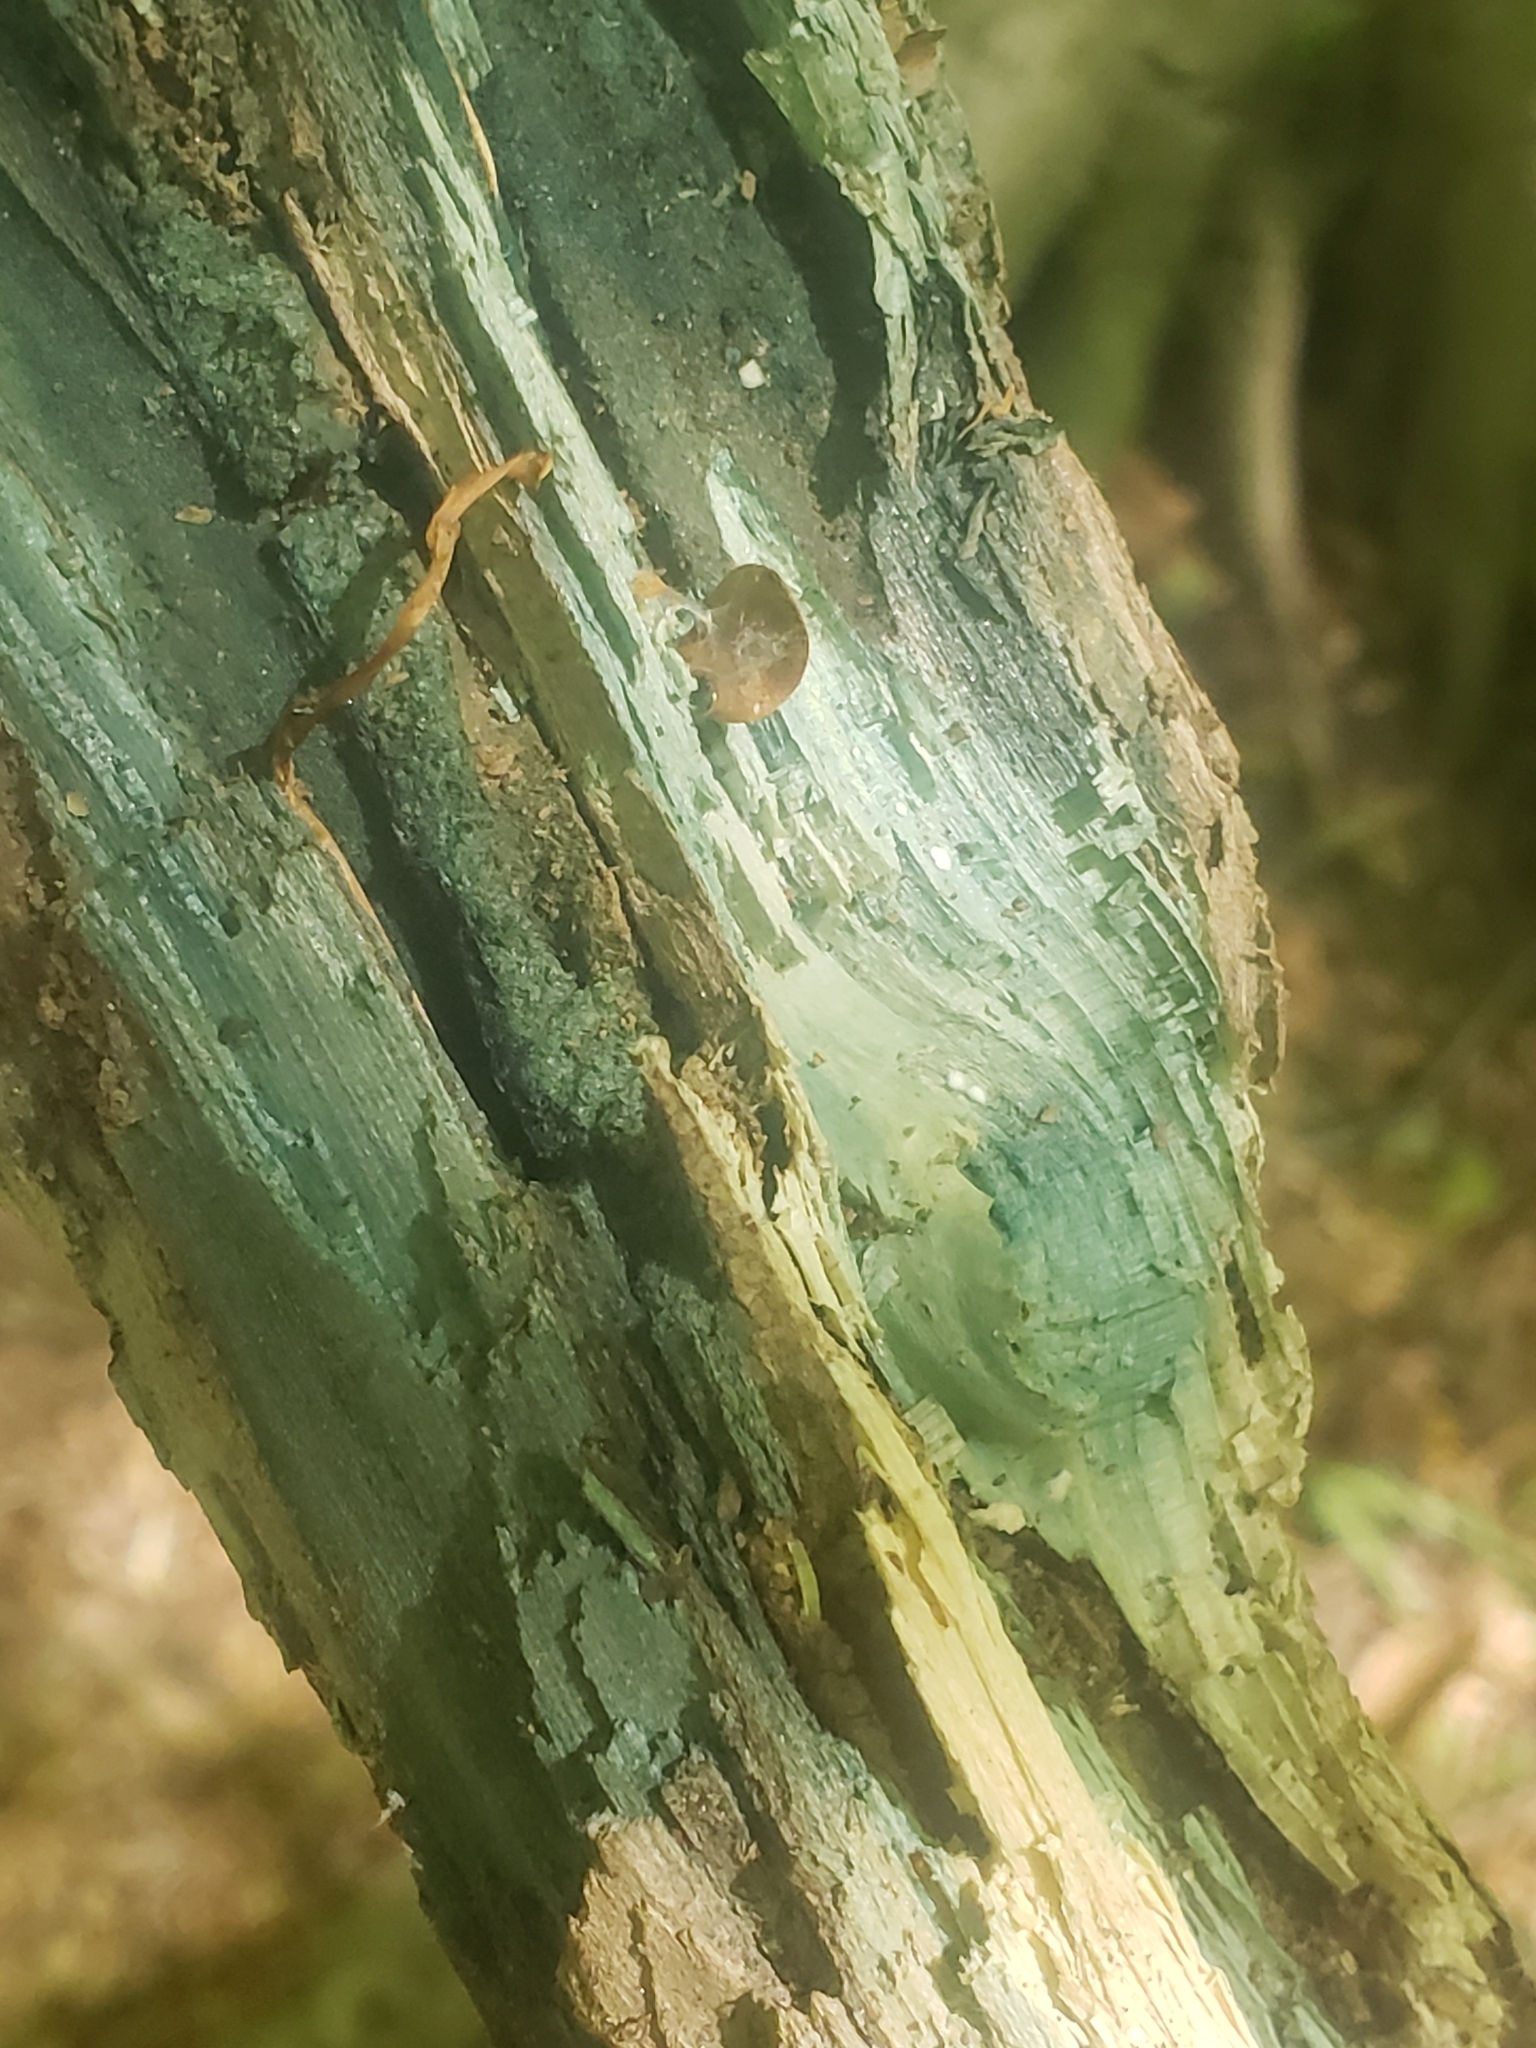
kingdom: Fungi
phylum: Ascomycota
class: Leotiomycetes
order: Helotiales
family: Chlorociboriaceae
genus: Chlorociboria
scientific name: Chlorociboria
